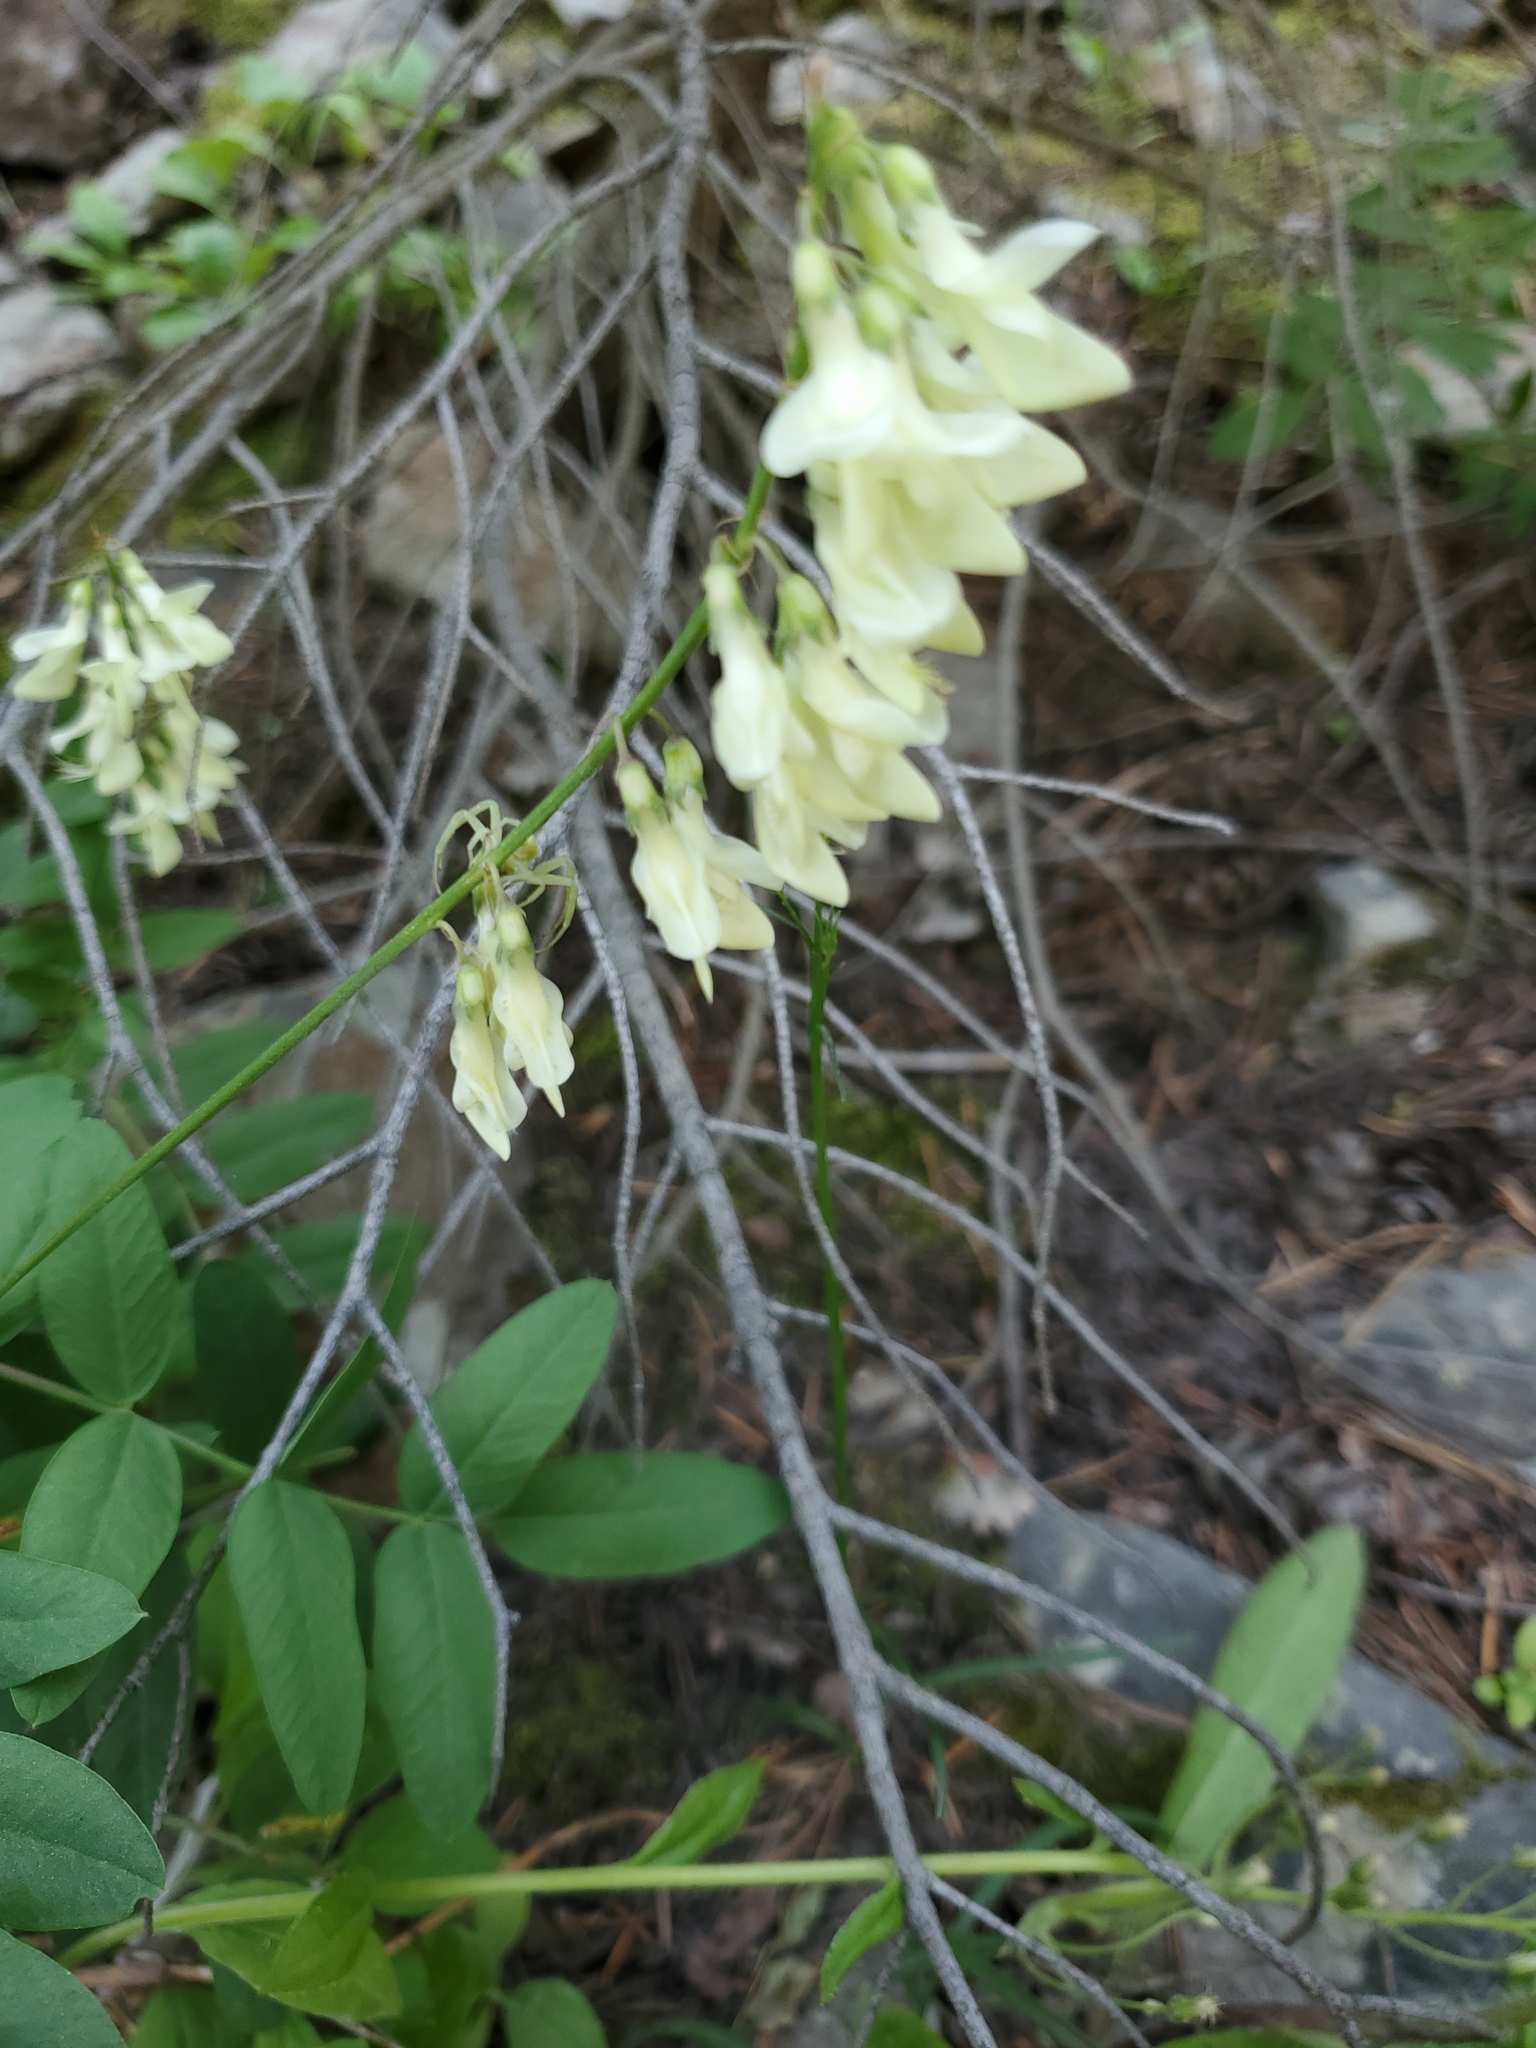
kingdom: Plantae
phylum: Tracheophyta
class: Magnoliopsida
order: Fabales
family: Fabaceae
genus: Hedysarum
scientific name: Hedysarum sulphurescens
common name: Sulphur hedysarum
